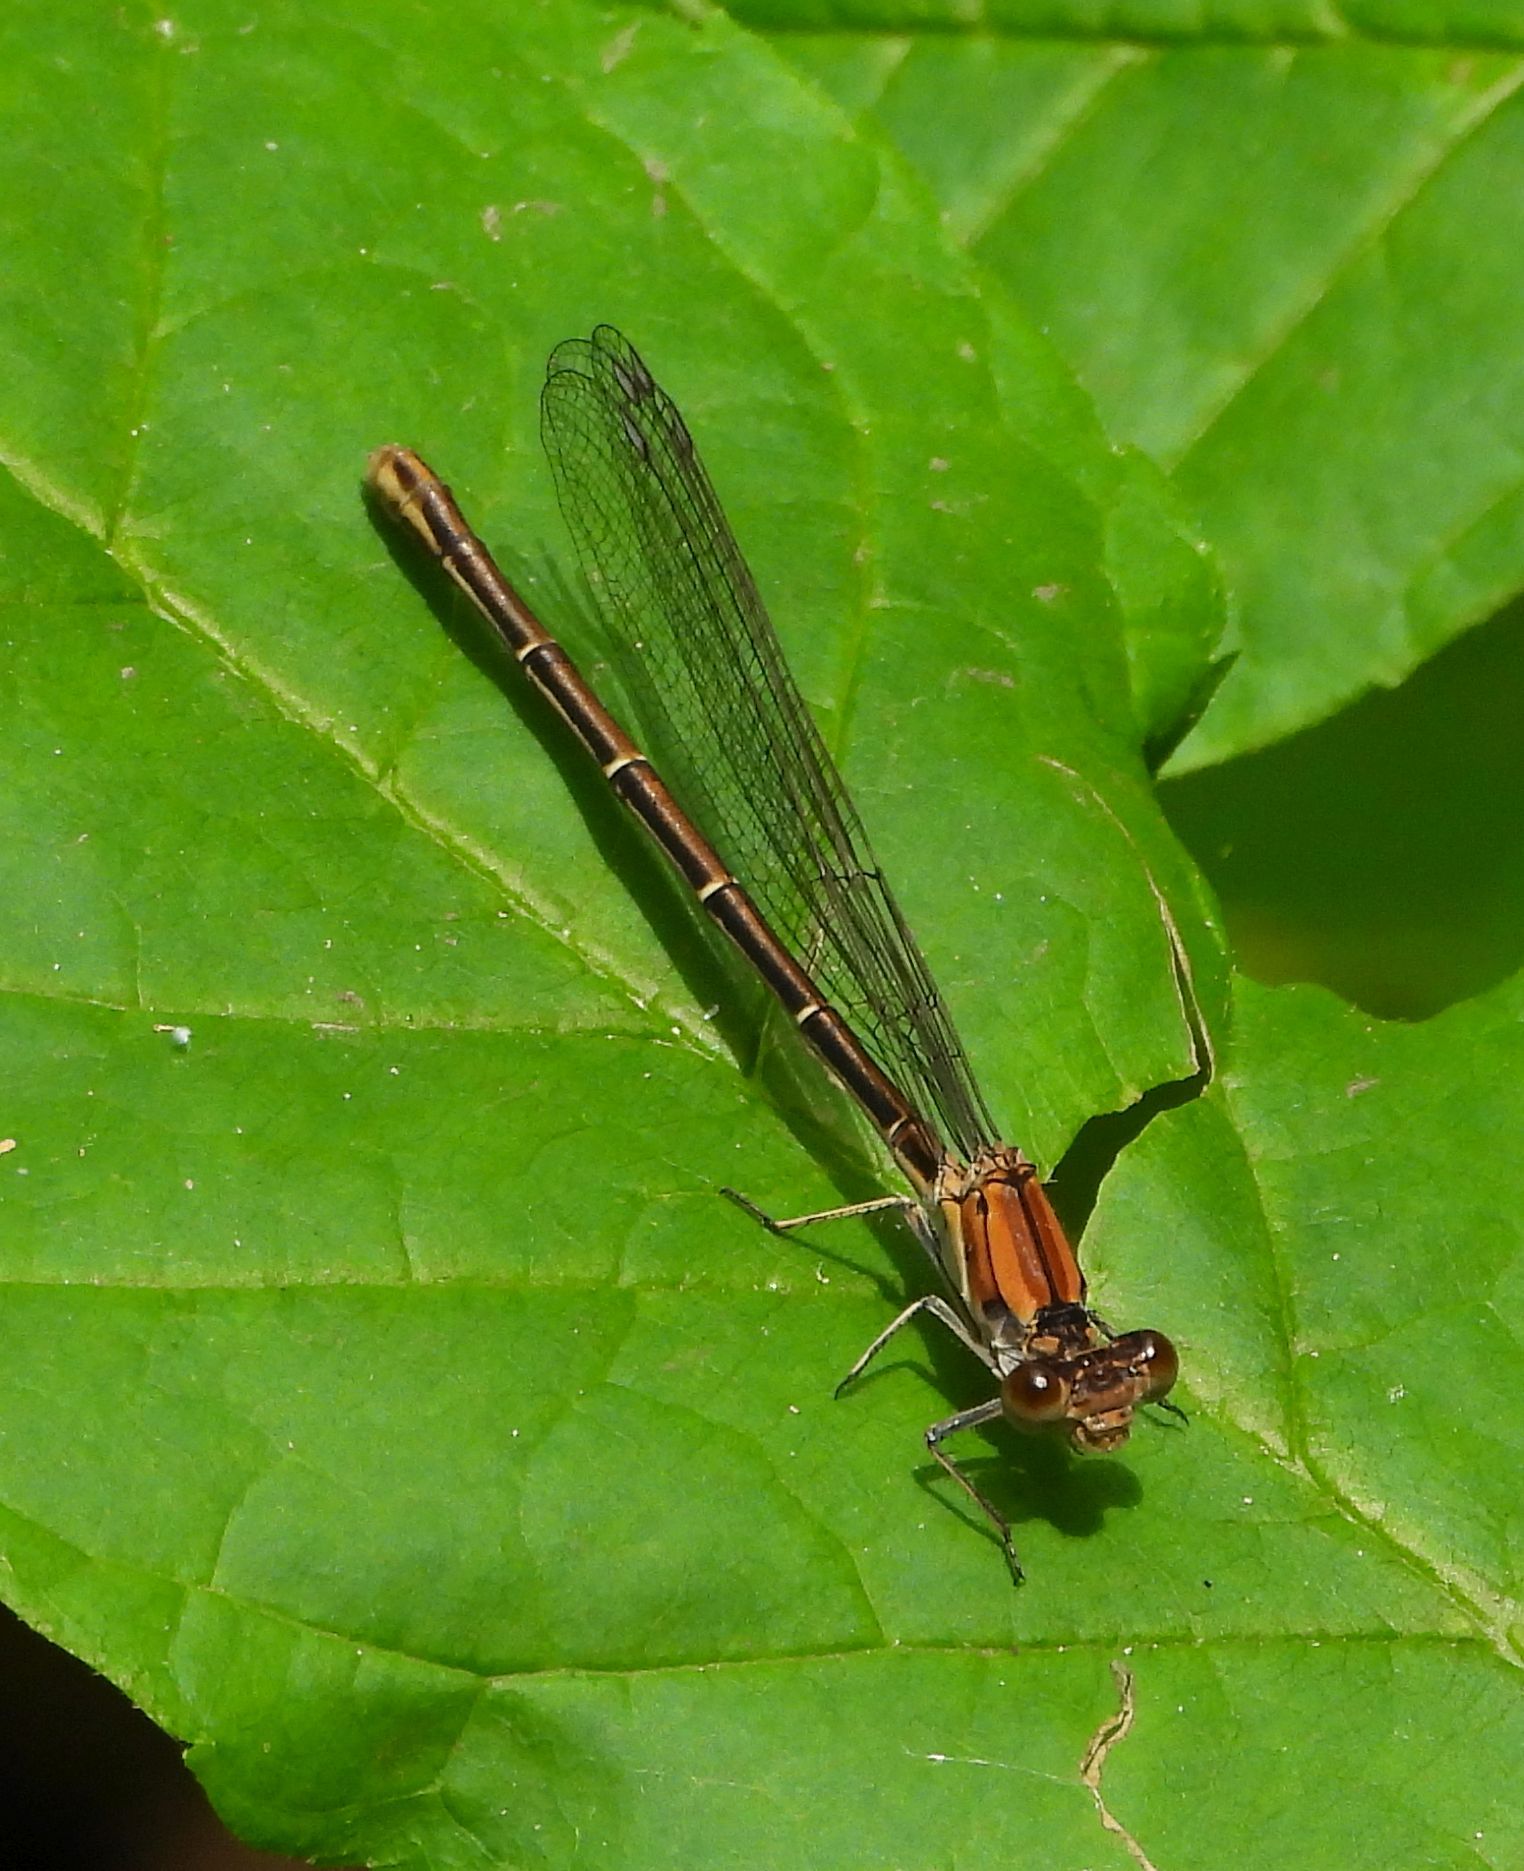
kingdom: Animalia
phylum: Arthropoda
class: Insecta
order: Odonata
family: Coenagrionidae
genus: Argia
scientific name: Argia moesta
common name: Powdered dancer
